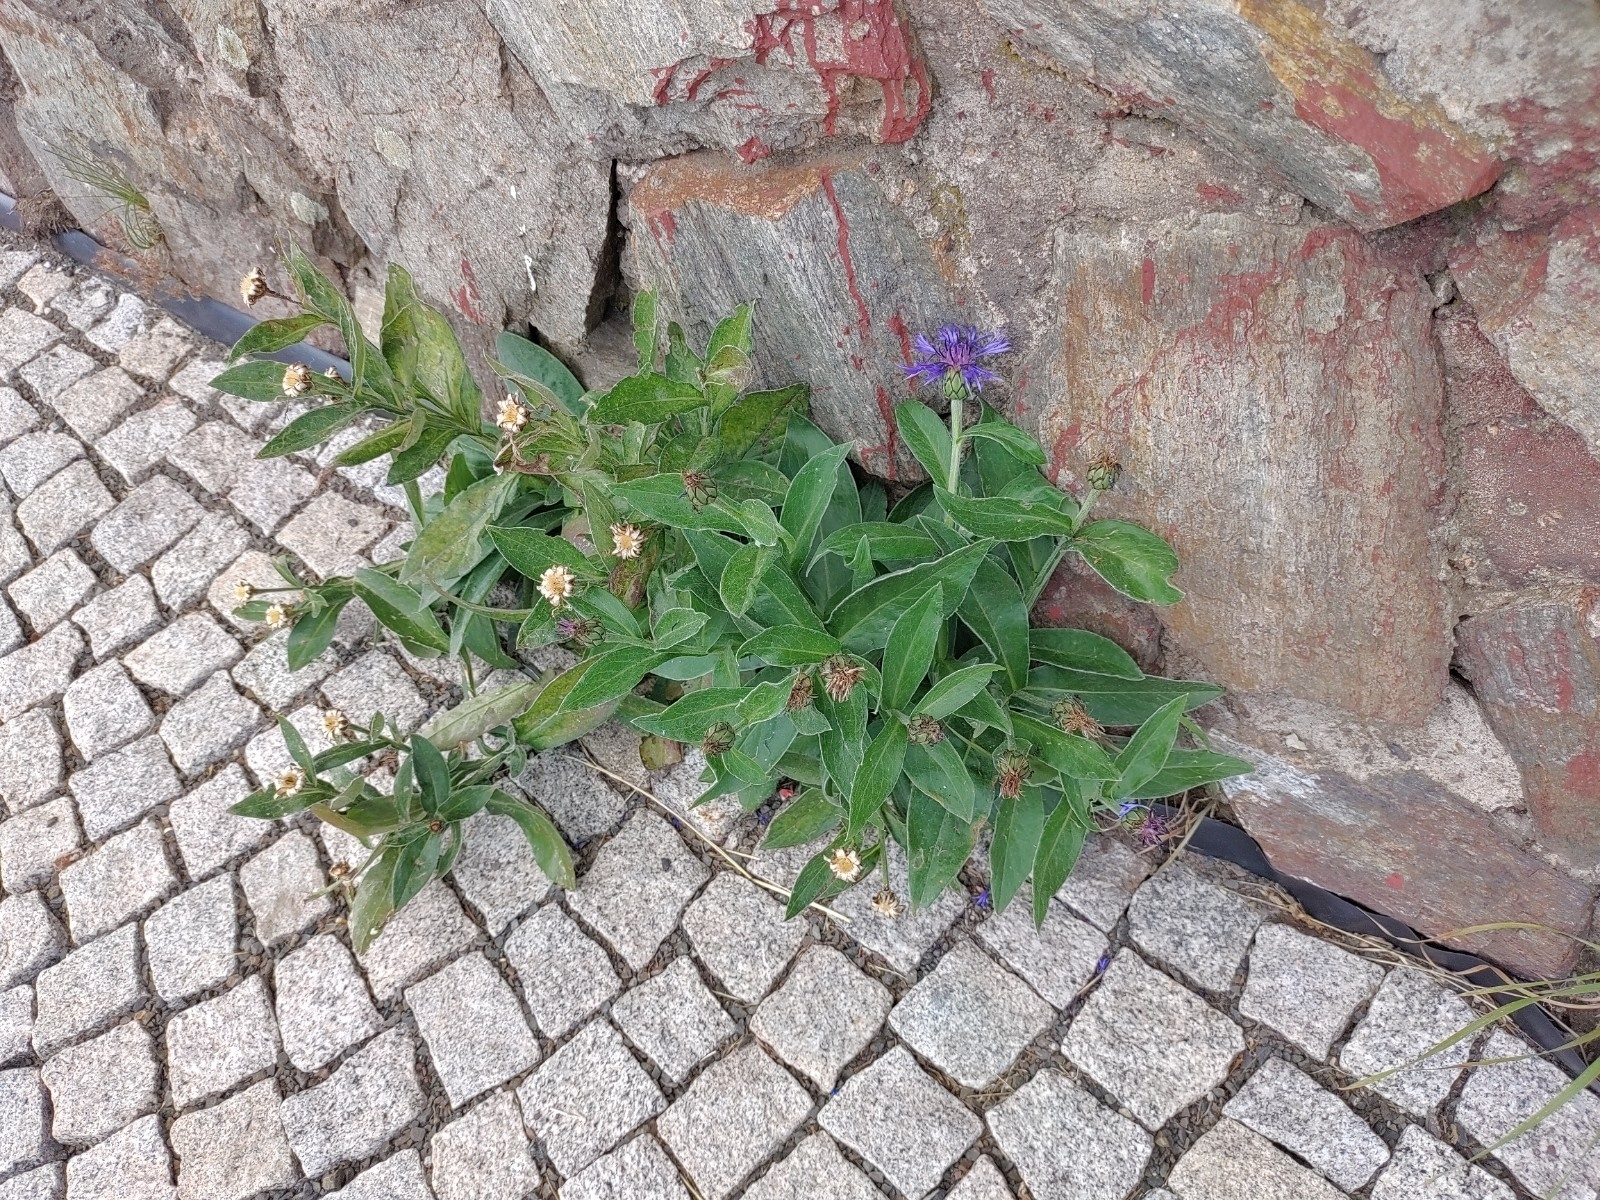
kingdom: Plantae
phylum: Tracheophyta
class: Magnoliopsida
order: Asterales
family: Asteraceae
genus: Centaurea
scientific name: Centaurea montana
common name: Perennial cornflower
